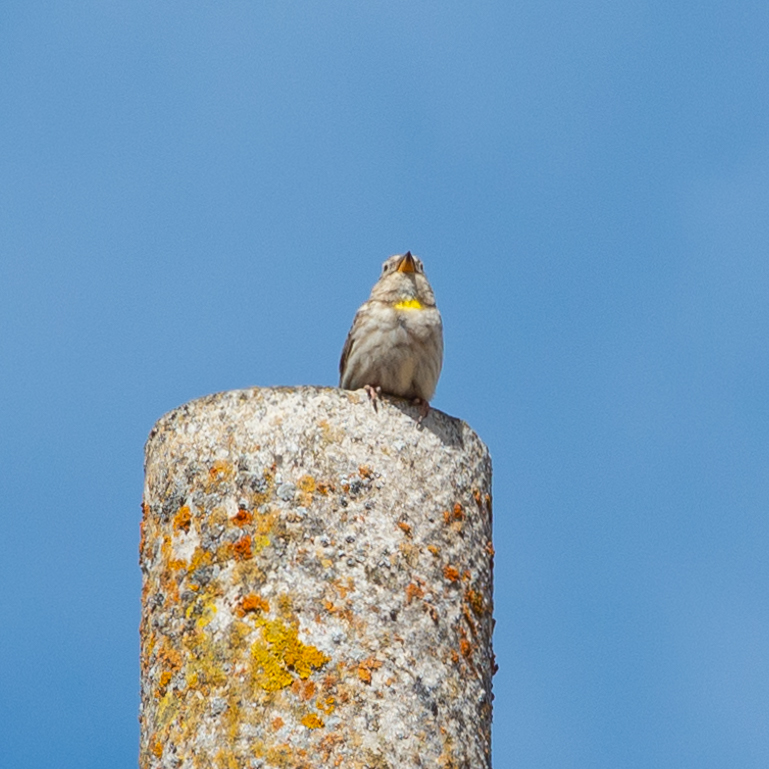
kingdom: Animalia
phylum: Chordata
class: Aves
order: Passeriformes
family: Passeridae
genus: Petronia
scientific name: Petronia petronia
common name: Rock sparrow
